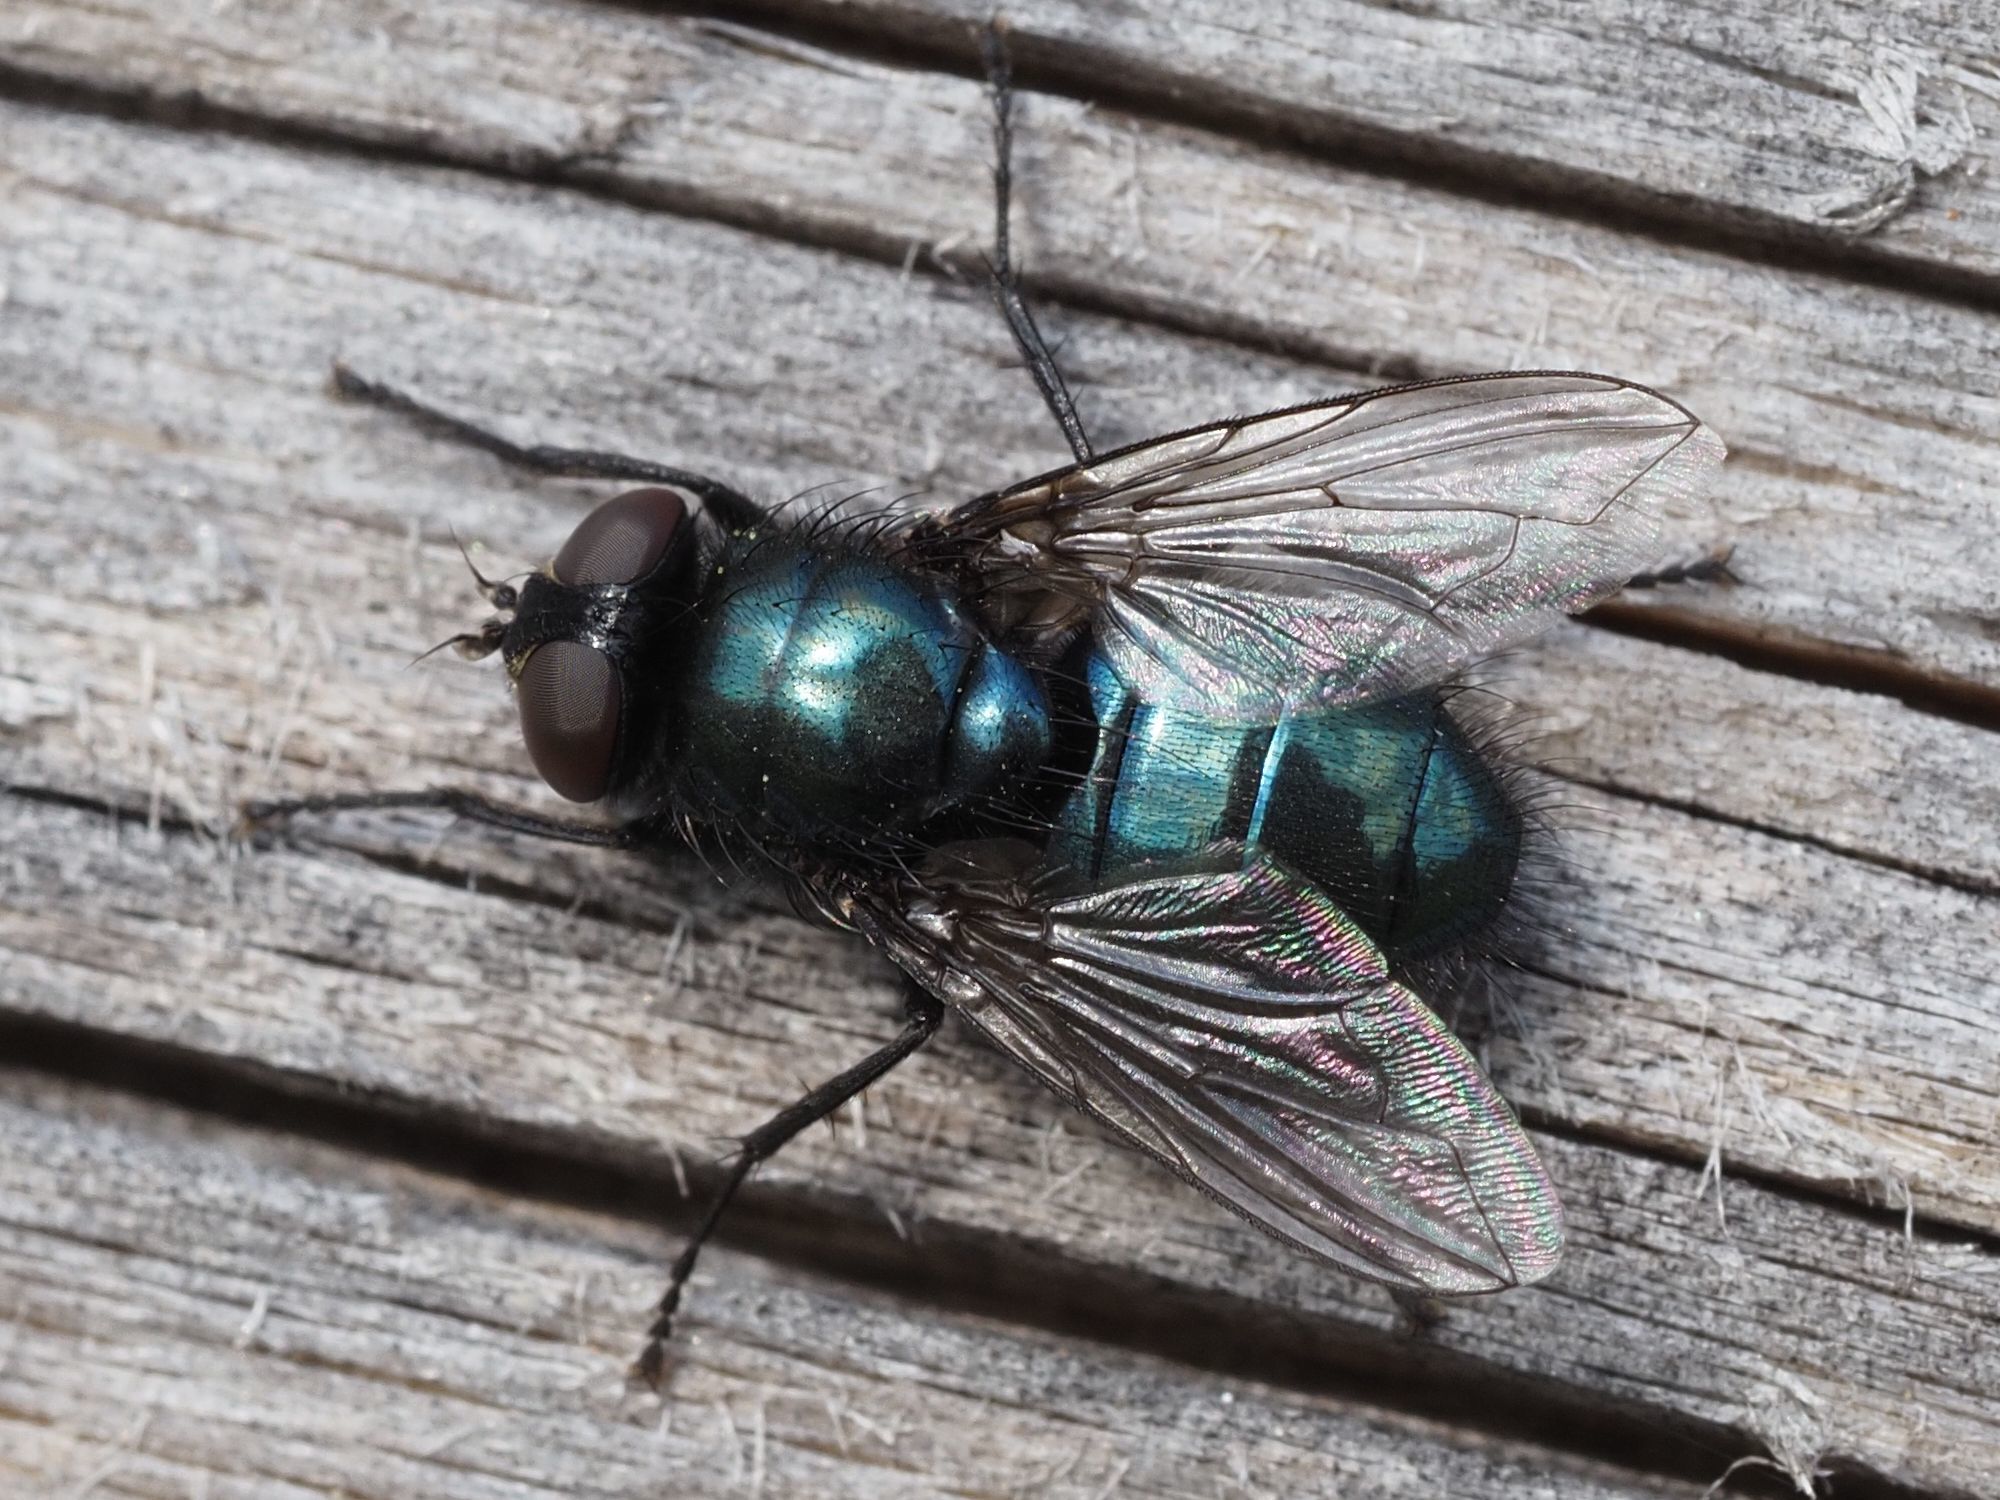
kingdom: Animalia
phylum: Arthropoda
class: Insecta
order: Diptera
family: Calliphoridae
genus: Protophormia
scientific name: Protophormia terraenovae
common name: Blackbottle
